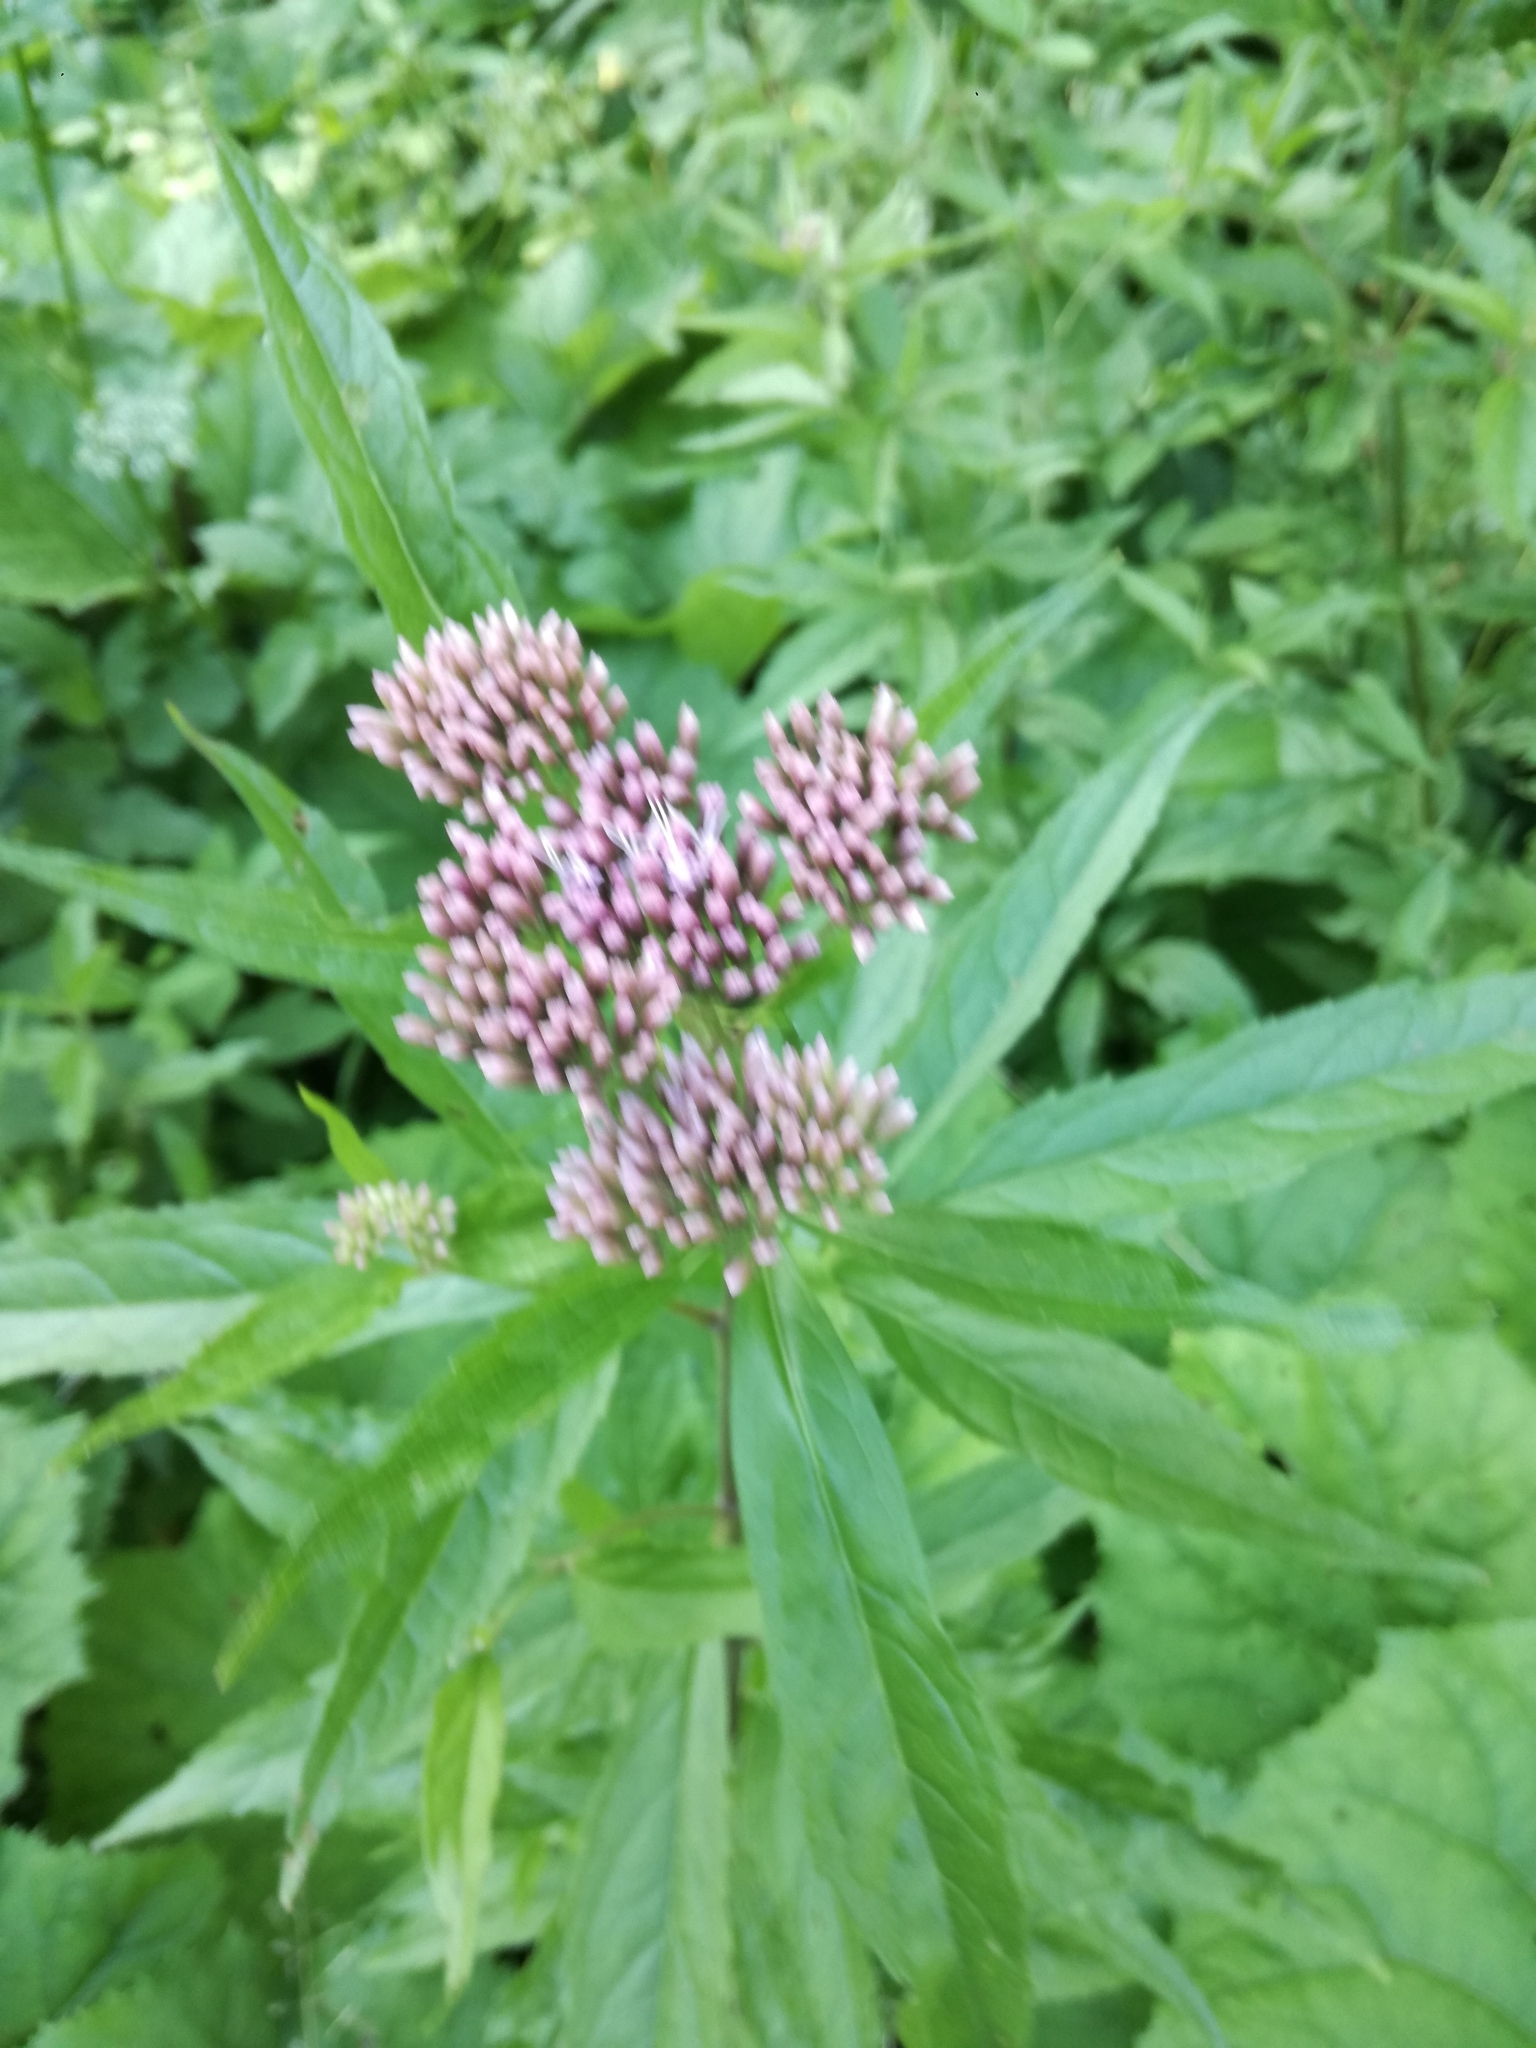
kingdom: Plantae
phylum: Tracheophyta
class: Magnoliopsida
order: Asterales
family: Asteraceae
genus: Eupatorium
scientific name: Eupatorium cannabinum
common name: Hemp-agrimony
